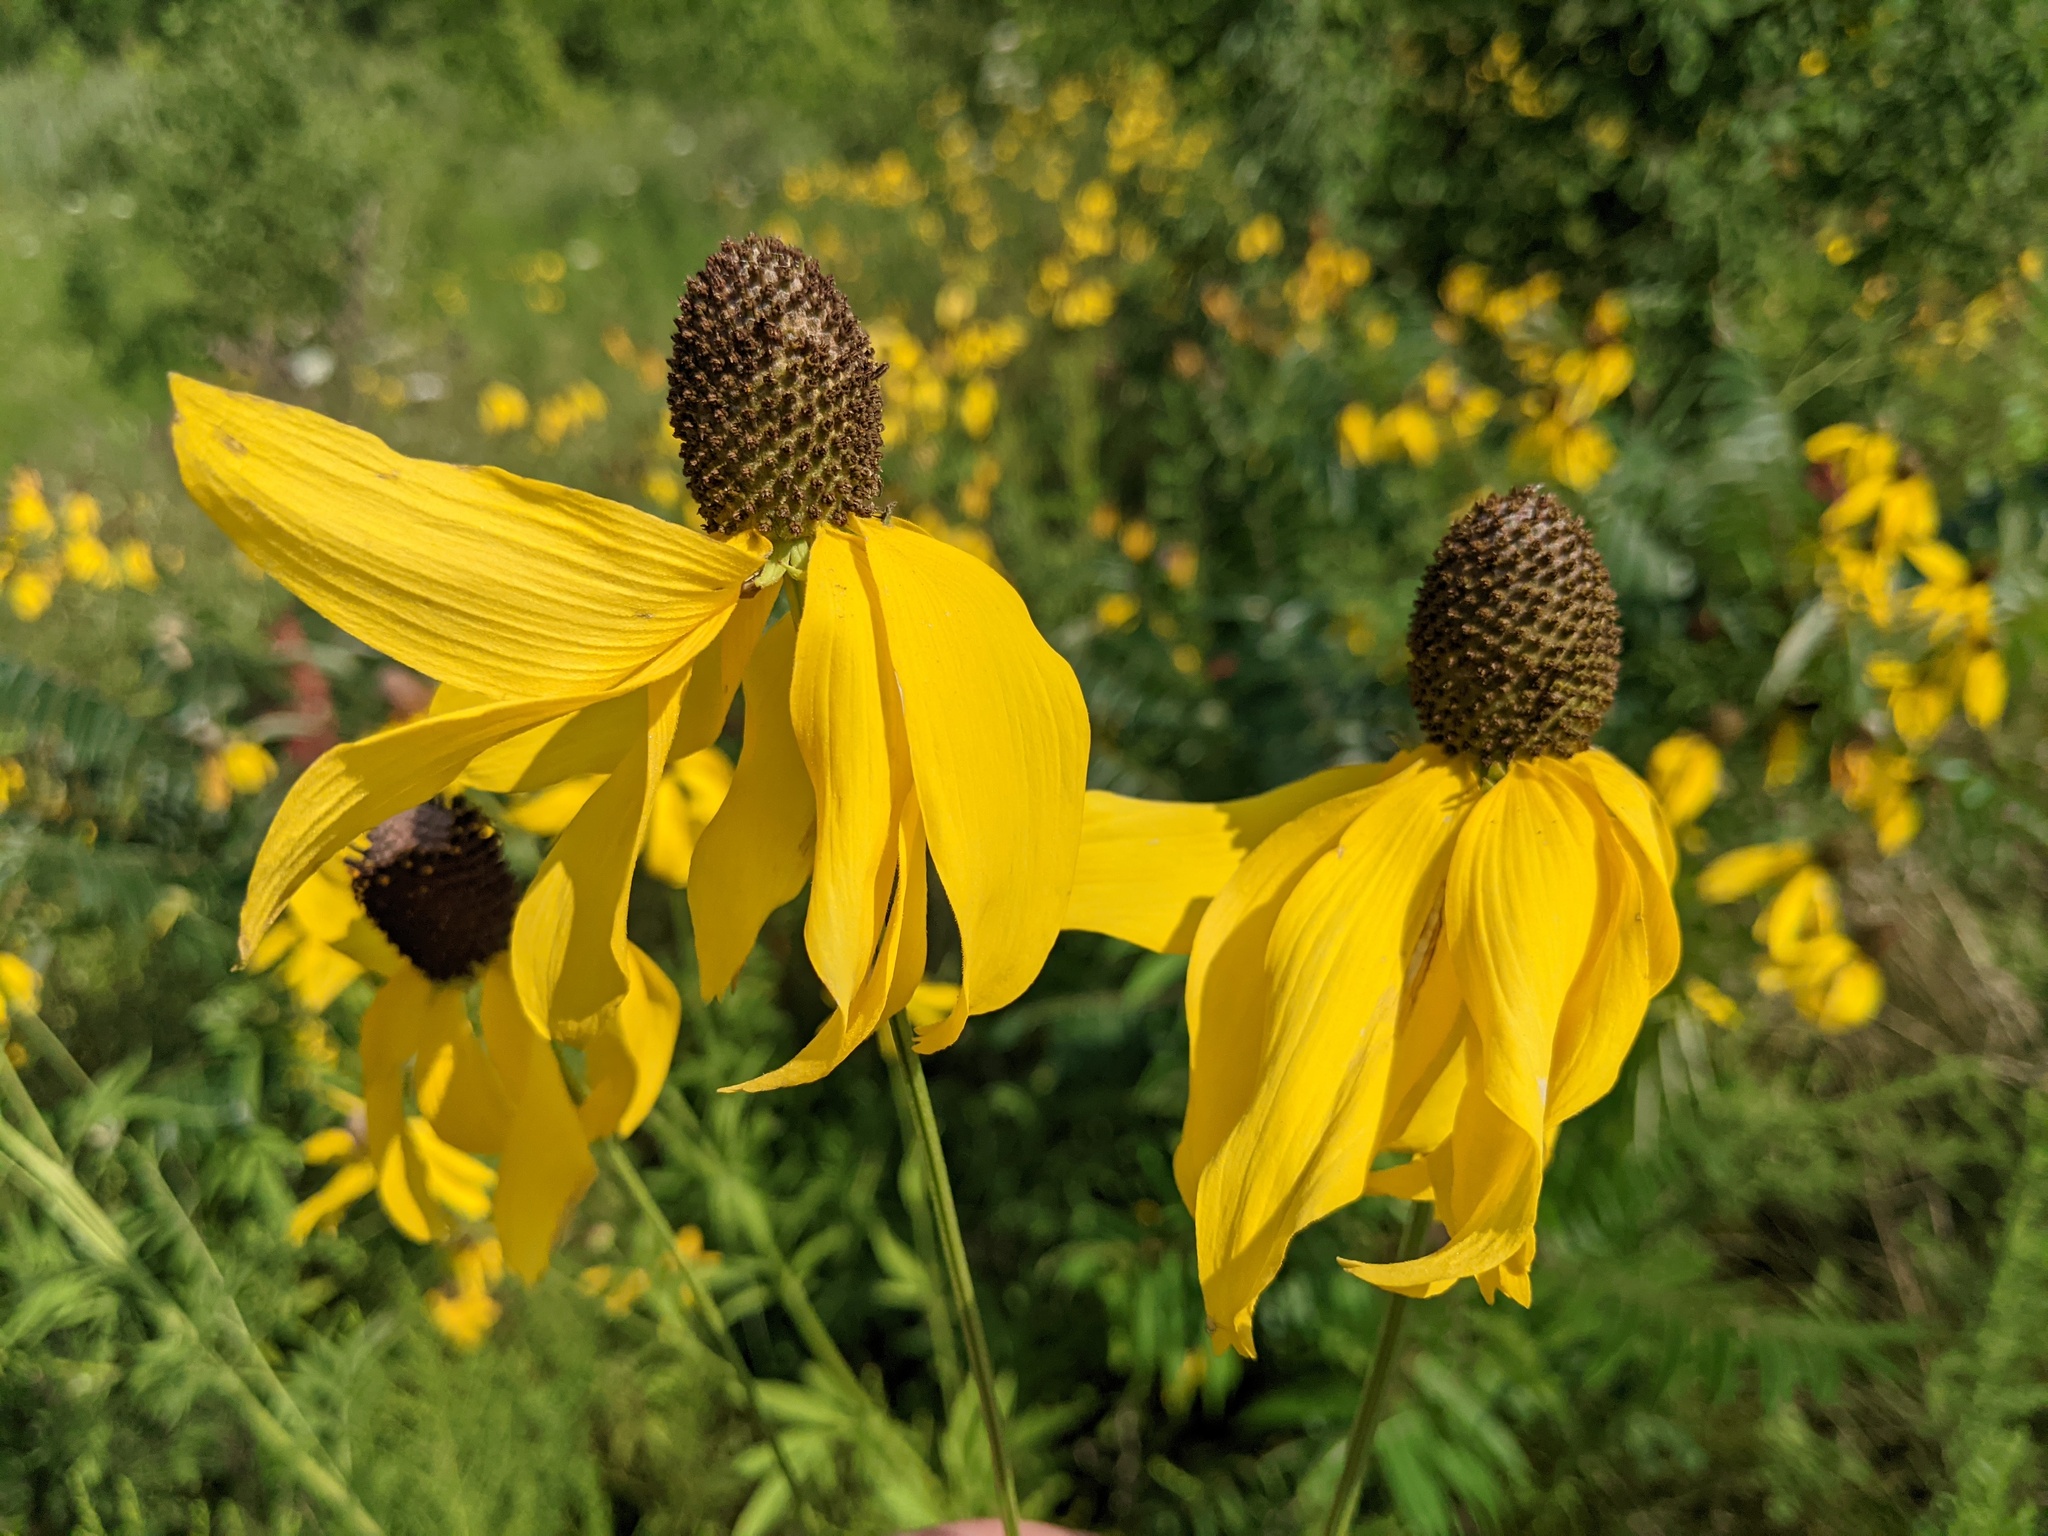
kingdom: Plantae
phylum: Tracheophyta
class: Magnoliopsida
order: Asterales
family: Asteraceae
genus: Ratibida
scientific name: Ratibida pinnata
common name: Drooping prairie-coneflower
